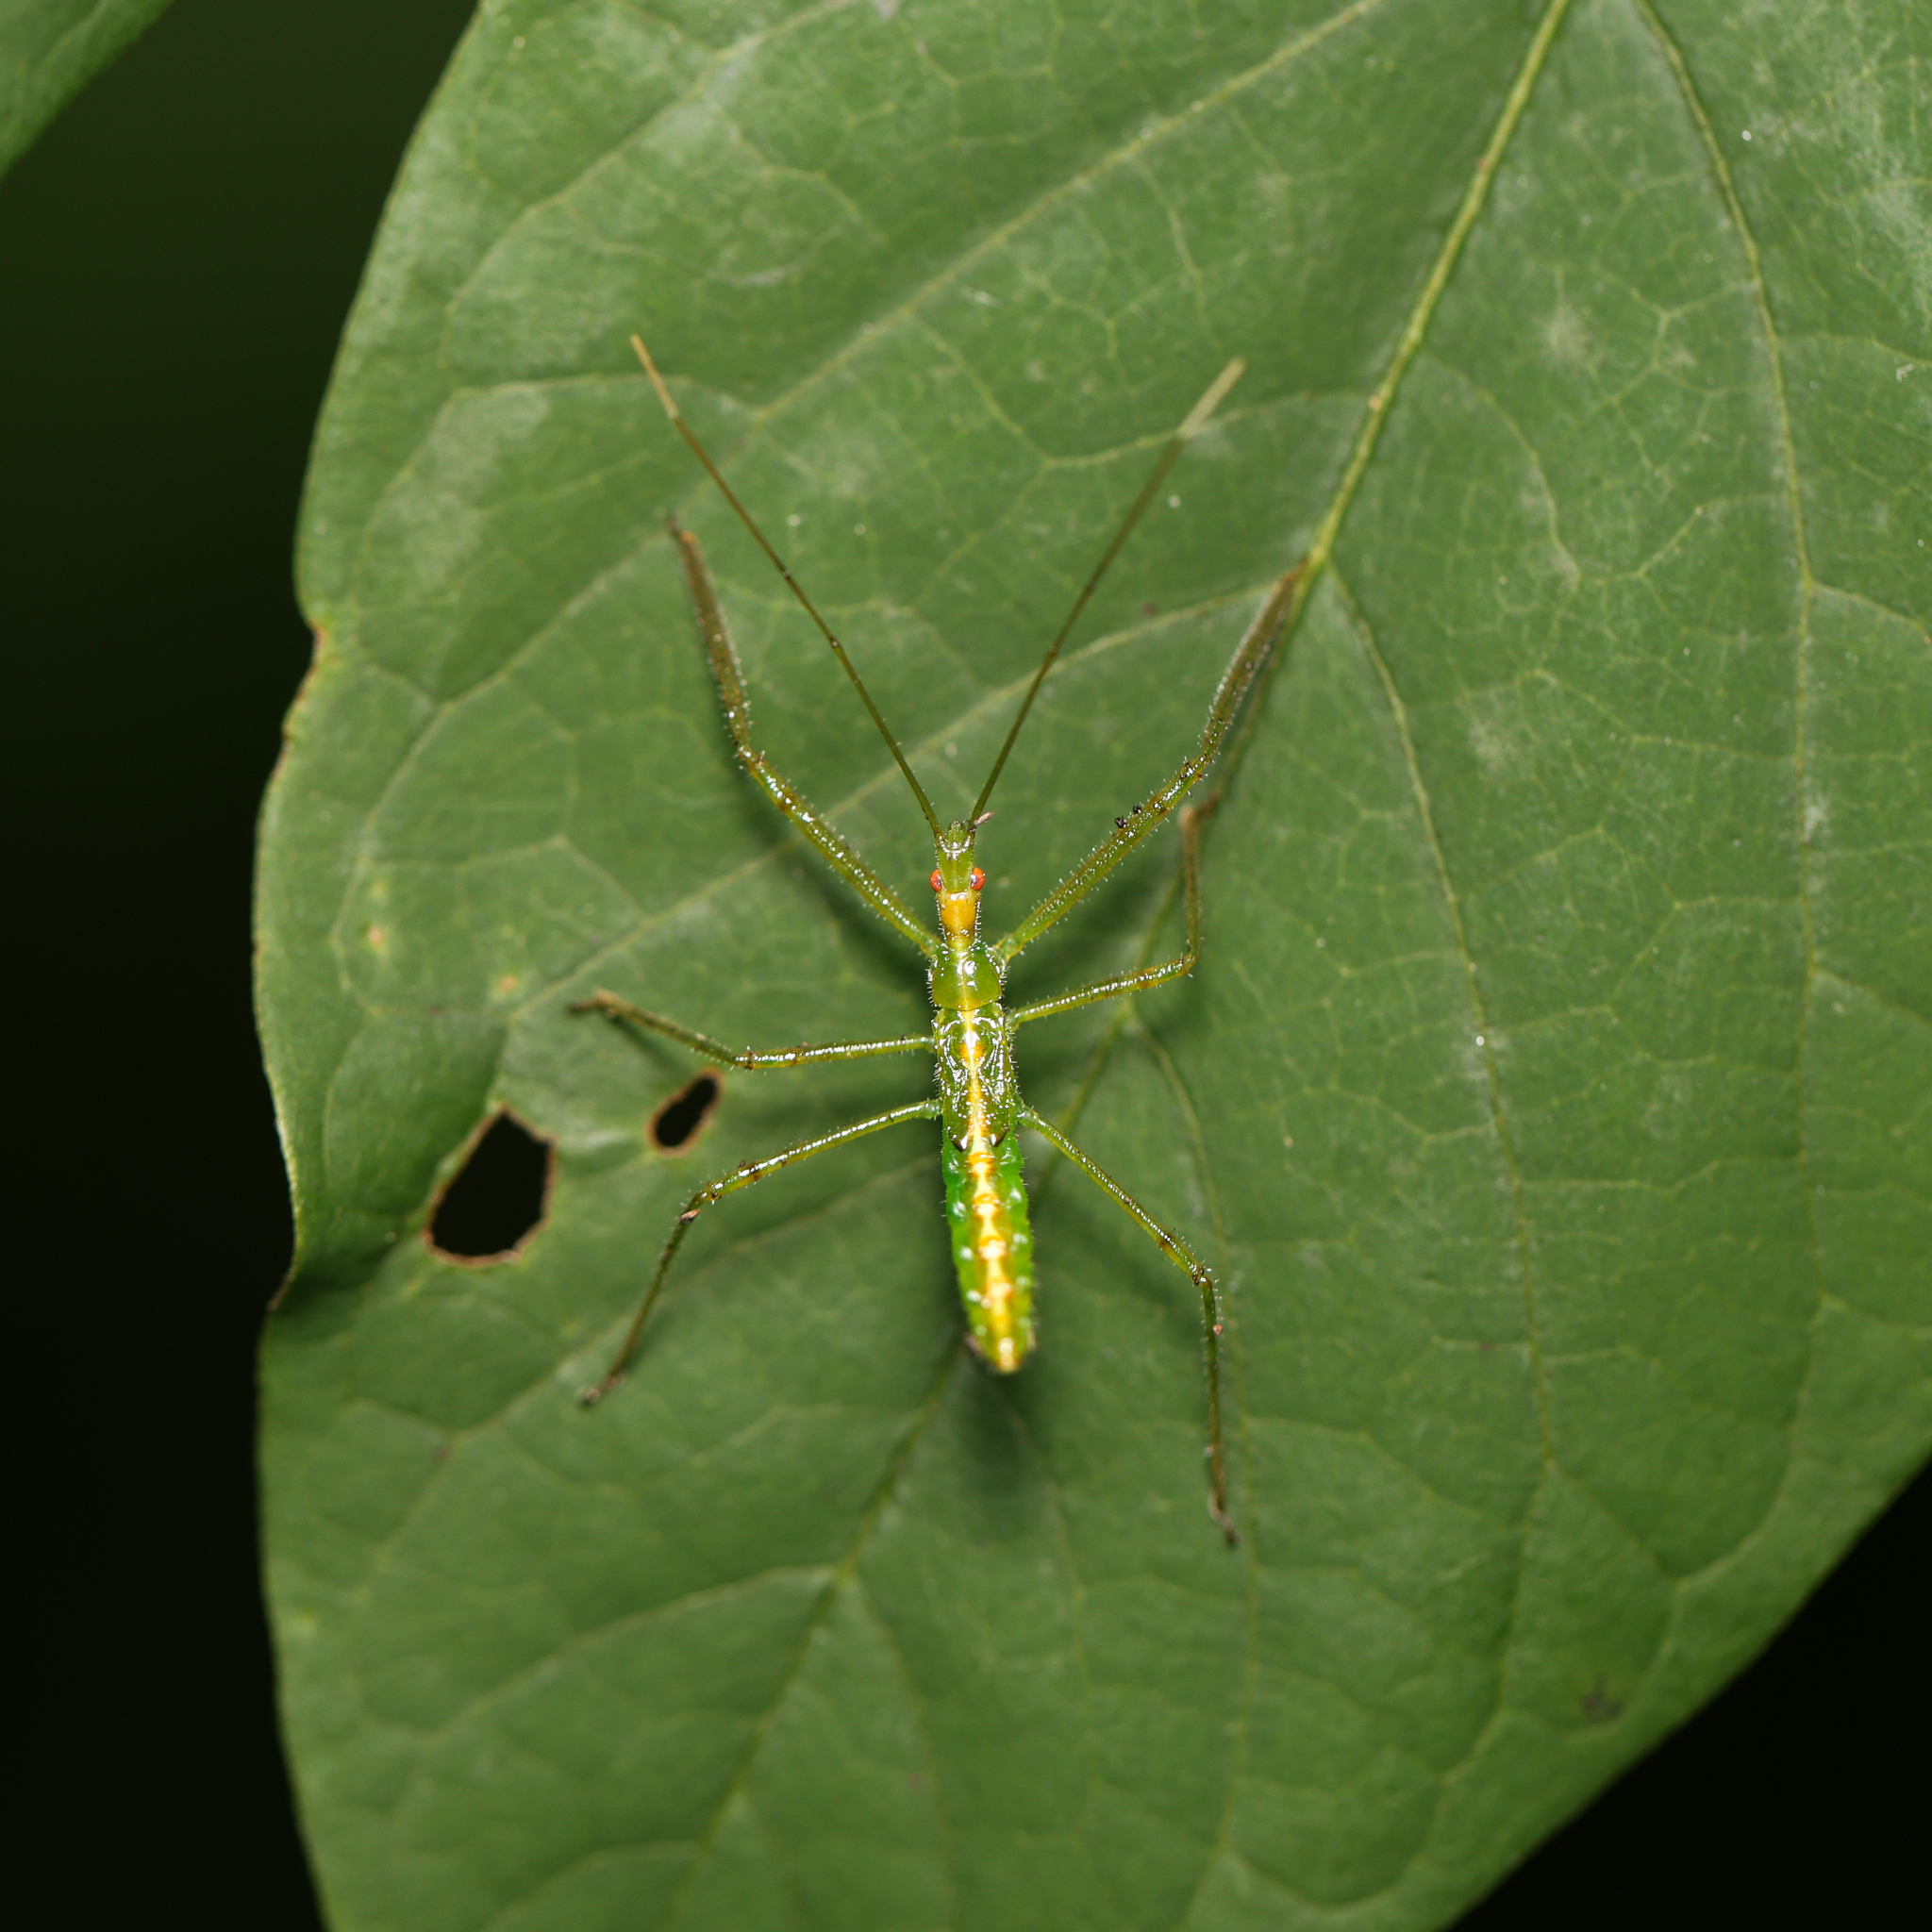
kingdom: Animalia
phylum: Arthropoda
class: Insecta
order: Hemiptera
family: Reduviidae
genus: Zelus
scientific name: Zelus luridus
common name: Pale green assassin bug
